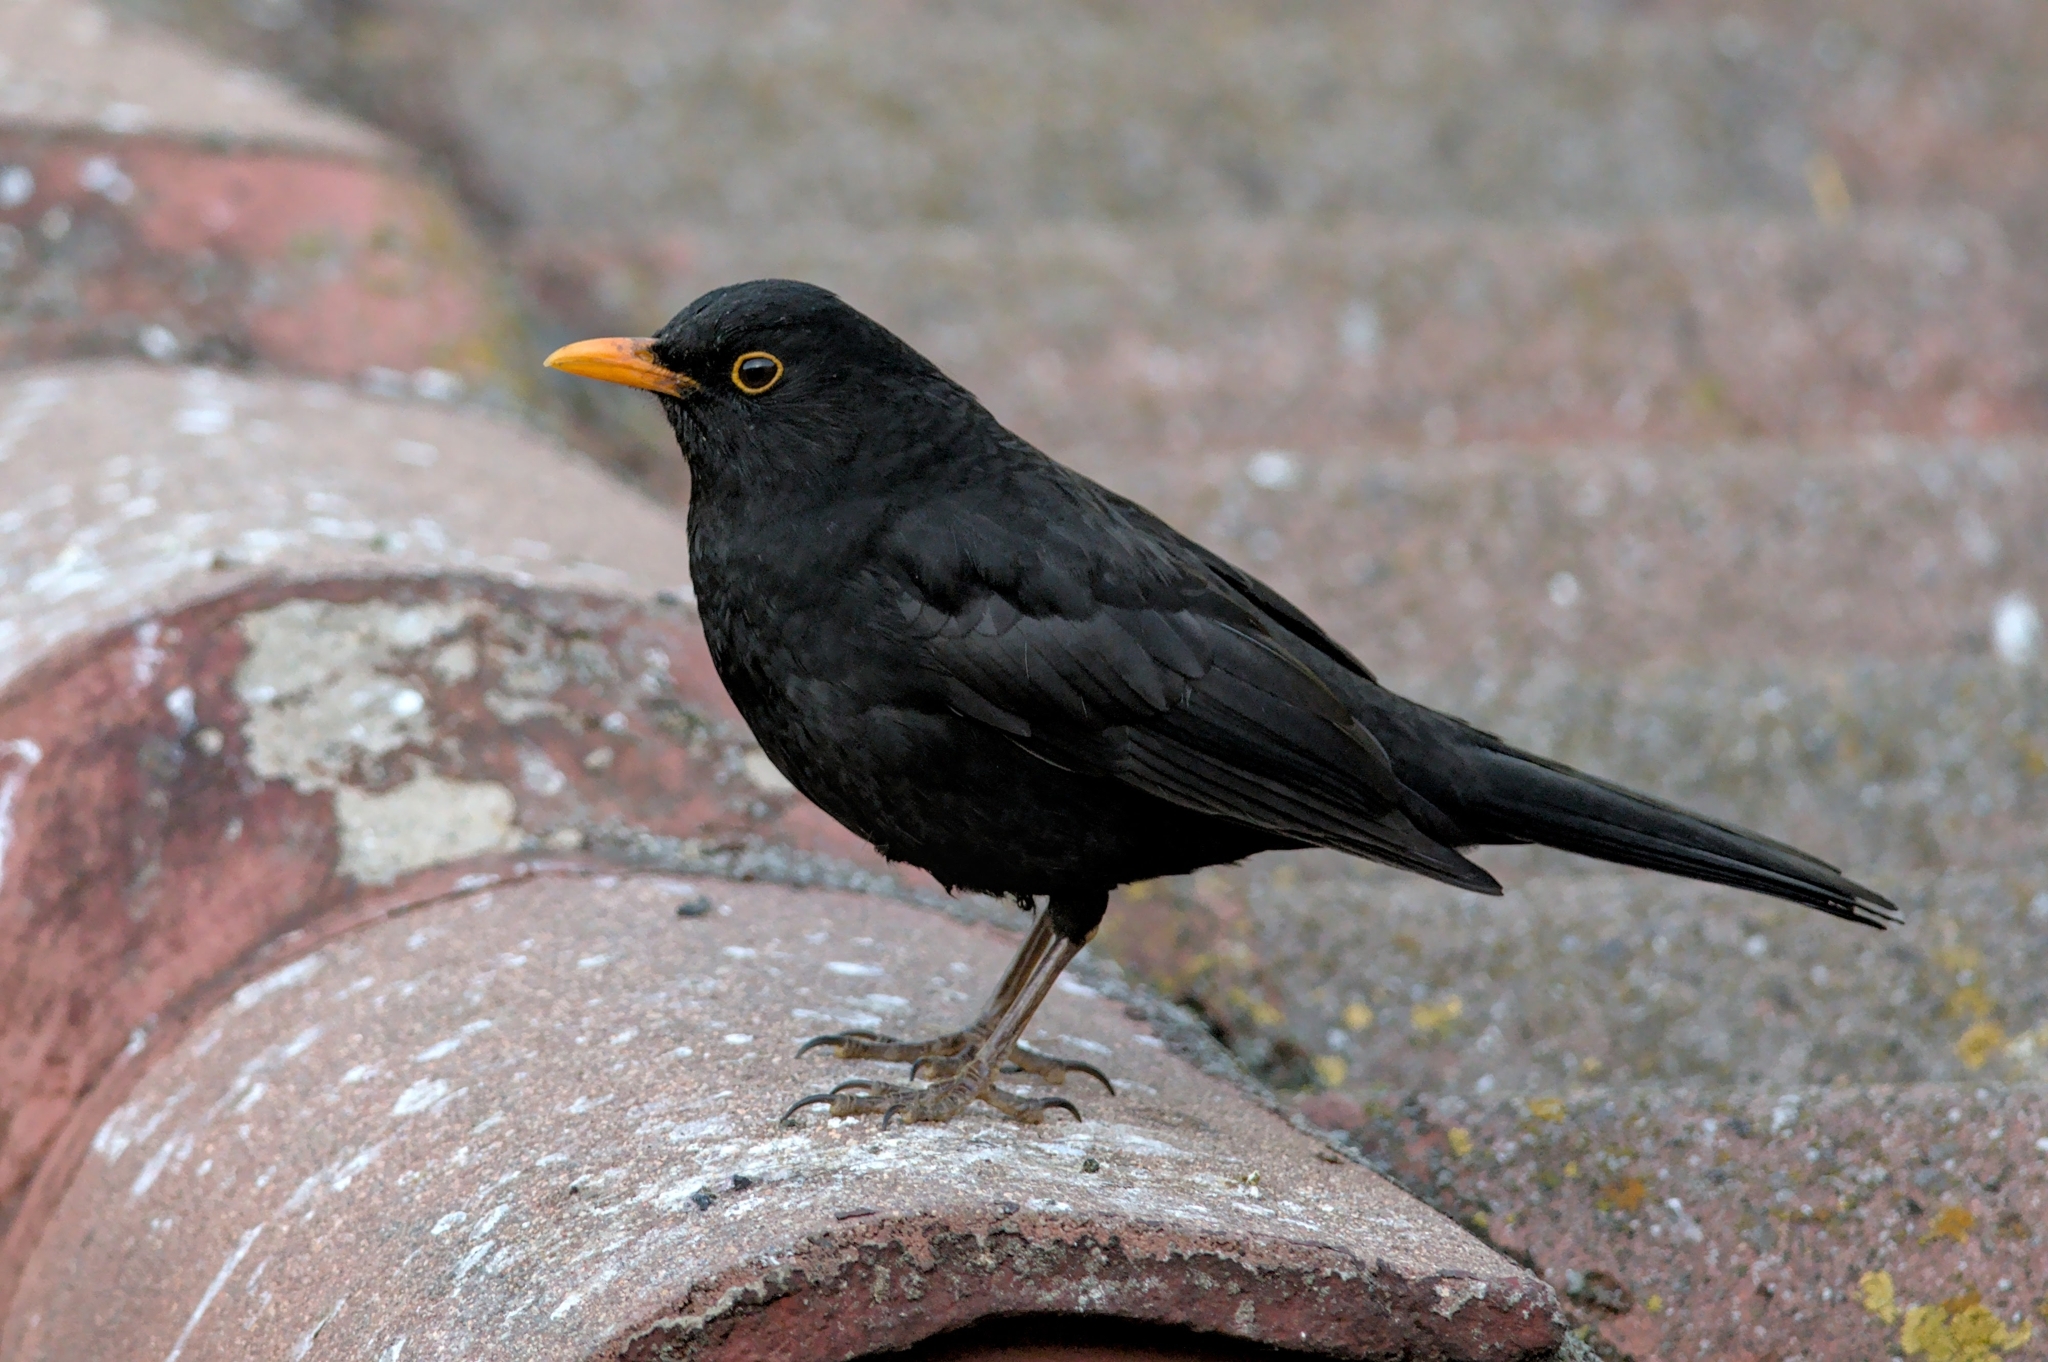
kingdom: Animalia
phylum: Chordata
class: Aves
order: Passeriformes
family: Turdidae
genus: Turdus
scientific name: Turdus merula
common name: Common blackbird
